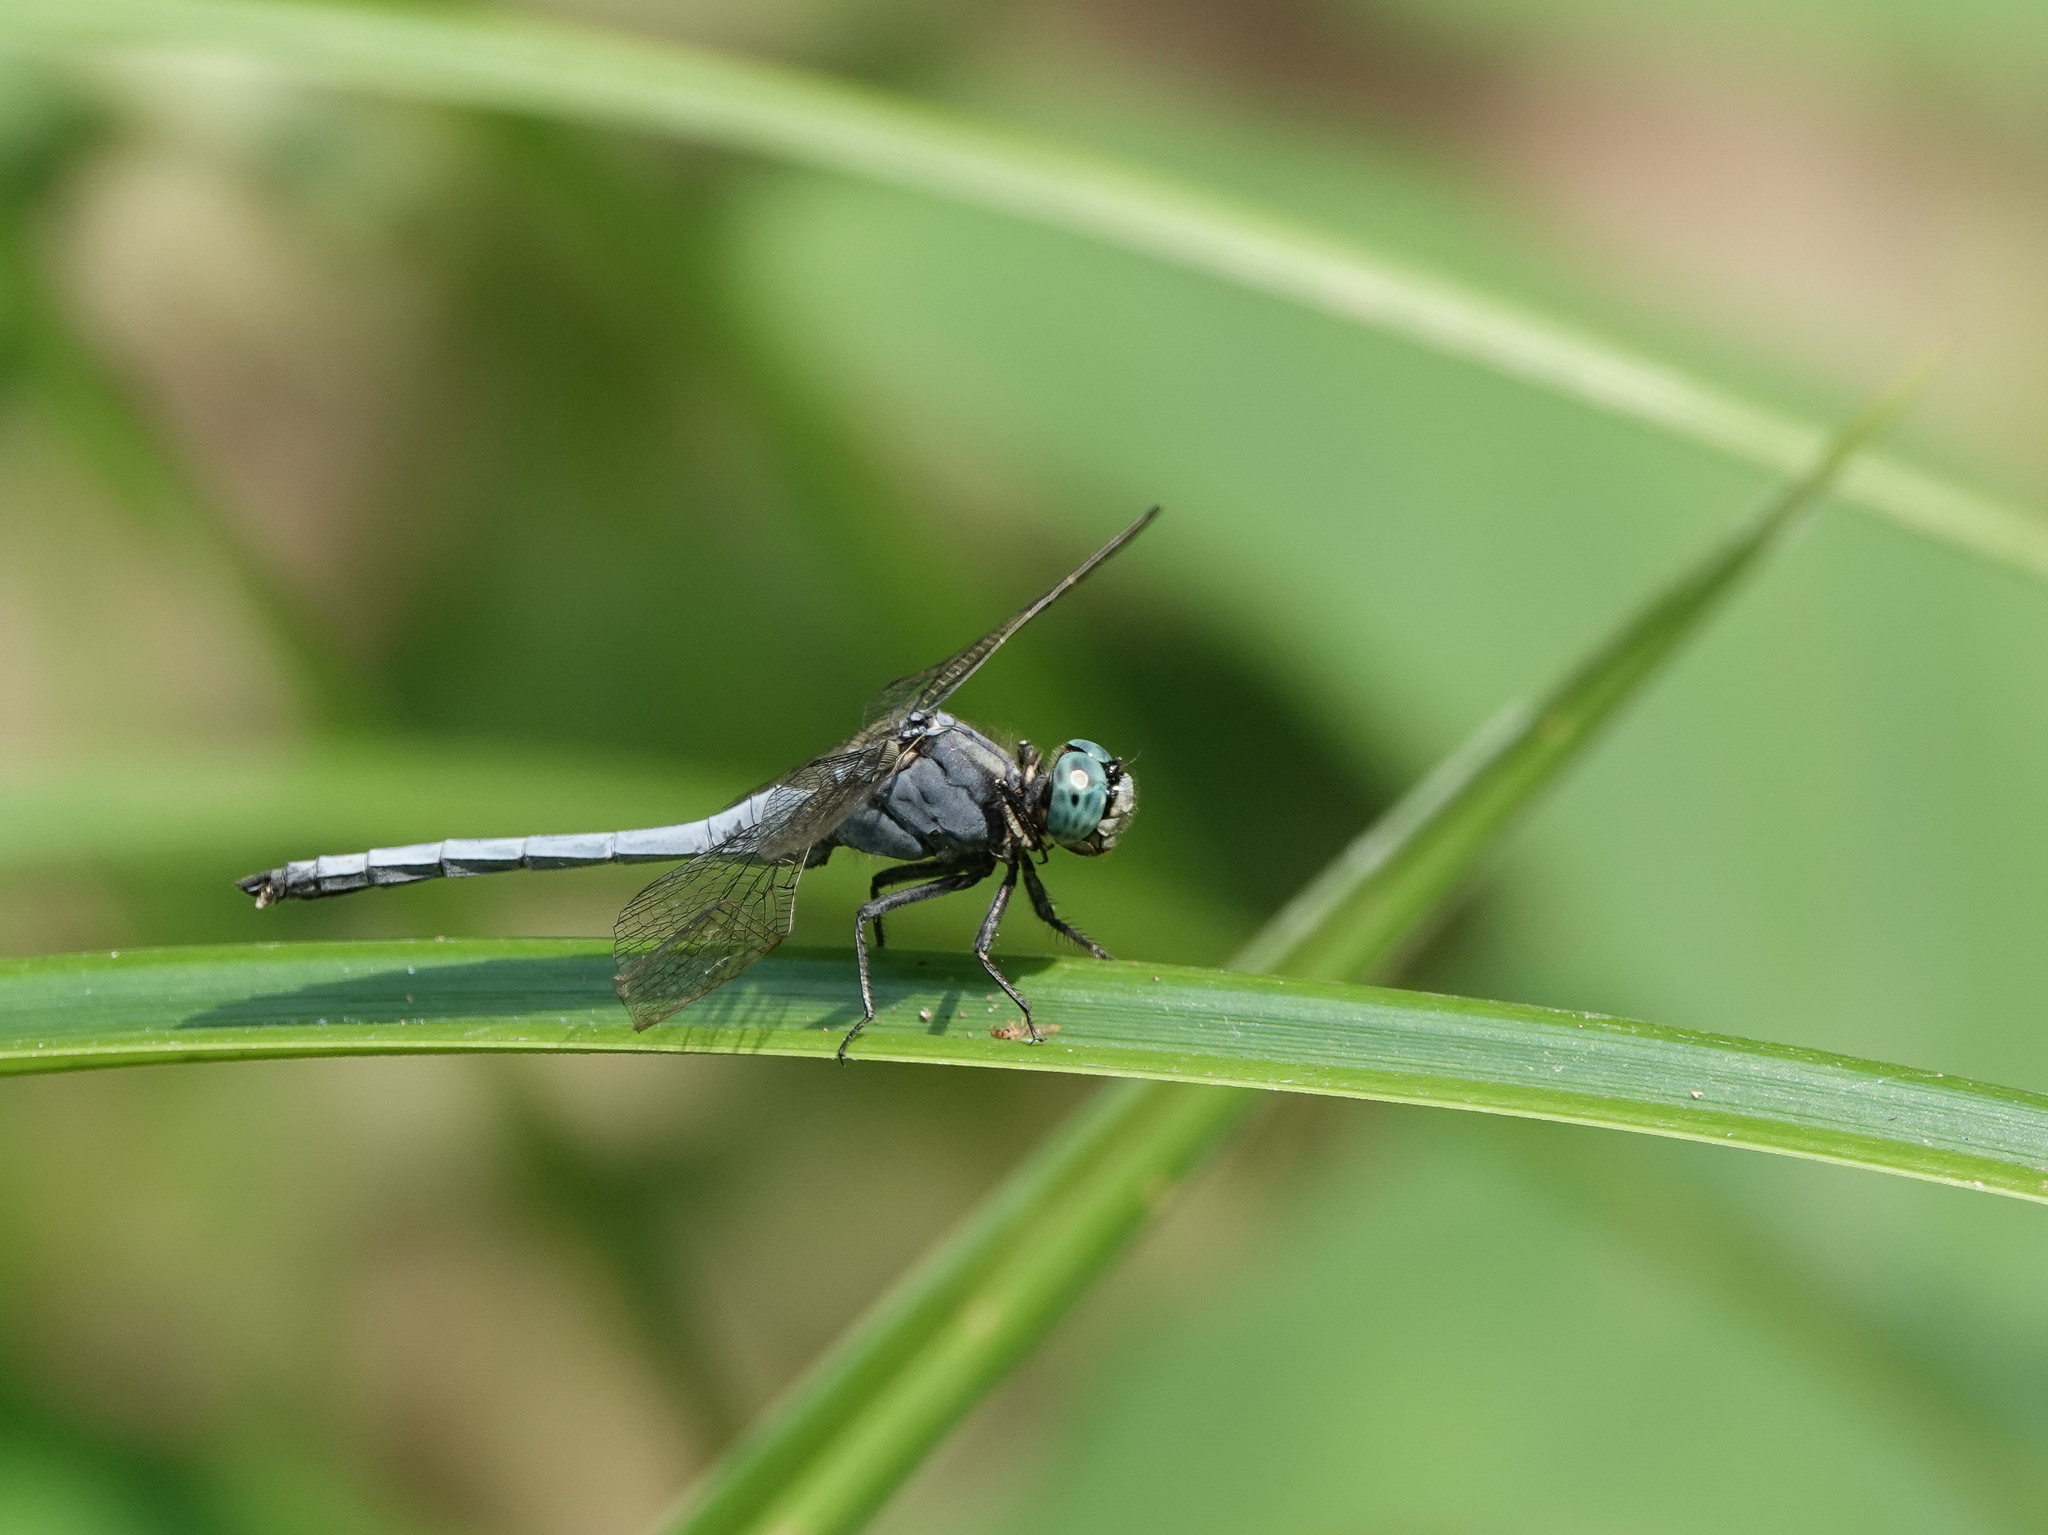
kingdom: Animalia
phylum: Arthropoda
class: Insecta
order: Odonata
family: Libellulidae
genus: Orthetrum
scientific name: Orthetrum luzonicum
